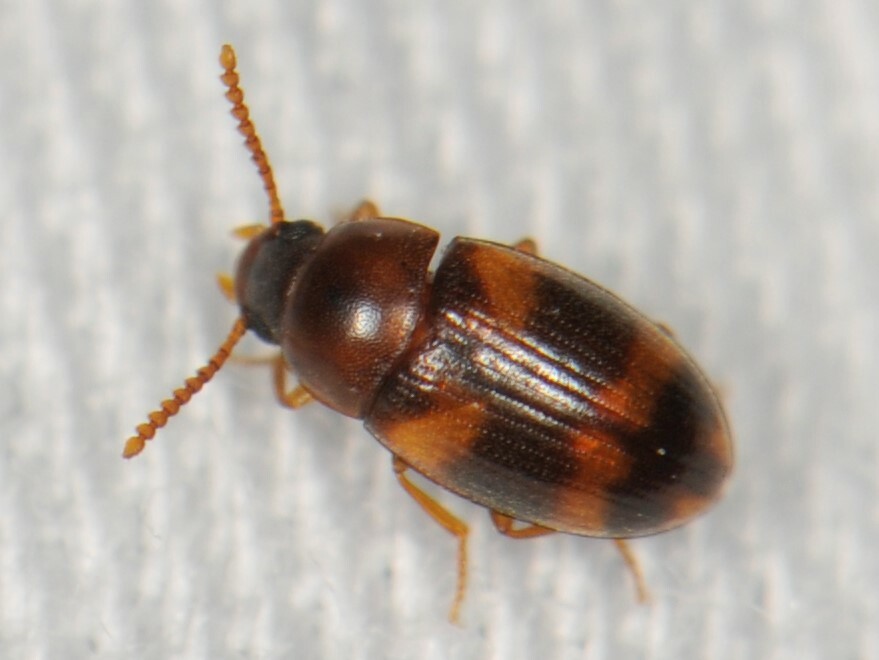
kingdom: Animalia
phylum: Arthropoda
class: Insecta
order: Coleoptera
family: Tenebrionidae
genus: Alphitophagus
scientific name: Alphitophagus bifasciatus
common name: Two-banded fungus beetle
